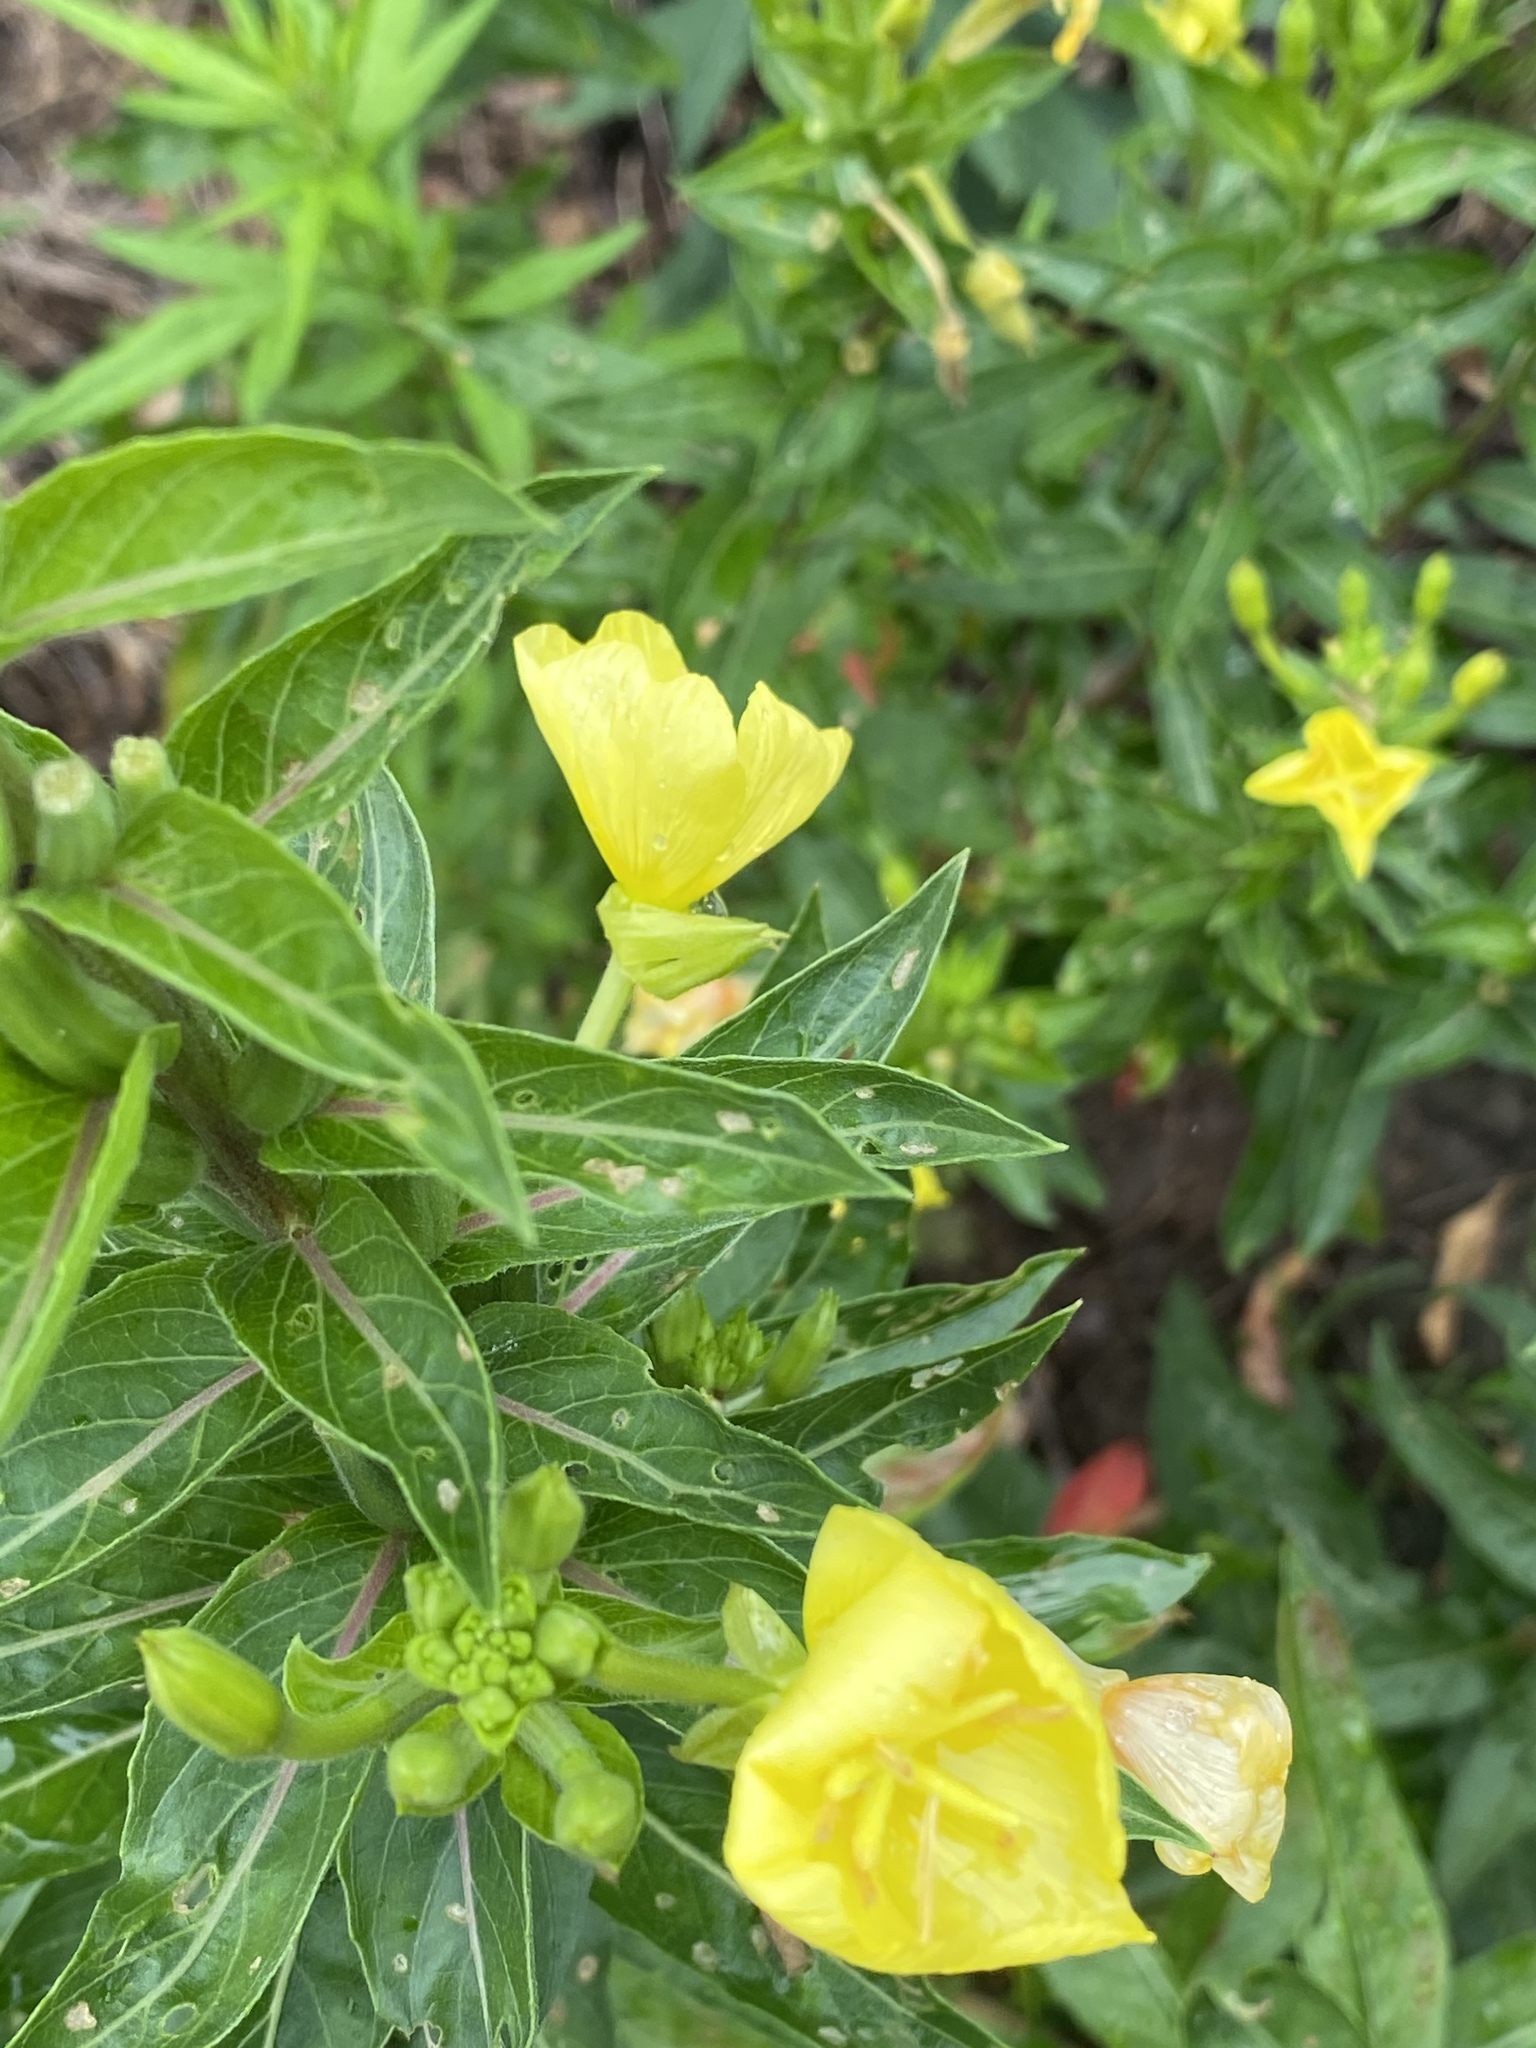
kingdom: Plantae
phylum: Tracheophyta
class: Magnoliopsida
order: Myrtales
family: Onagraceae
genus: Oenothera
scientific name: Oenothera biennis
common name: Common evening-primrose
